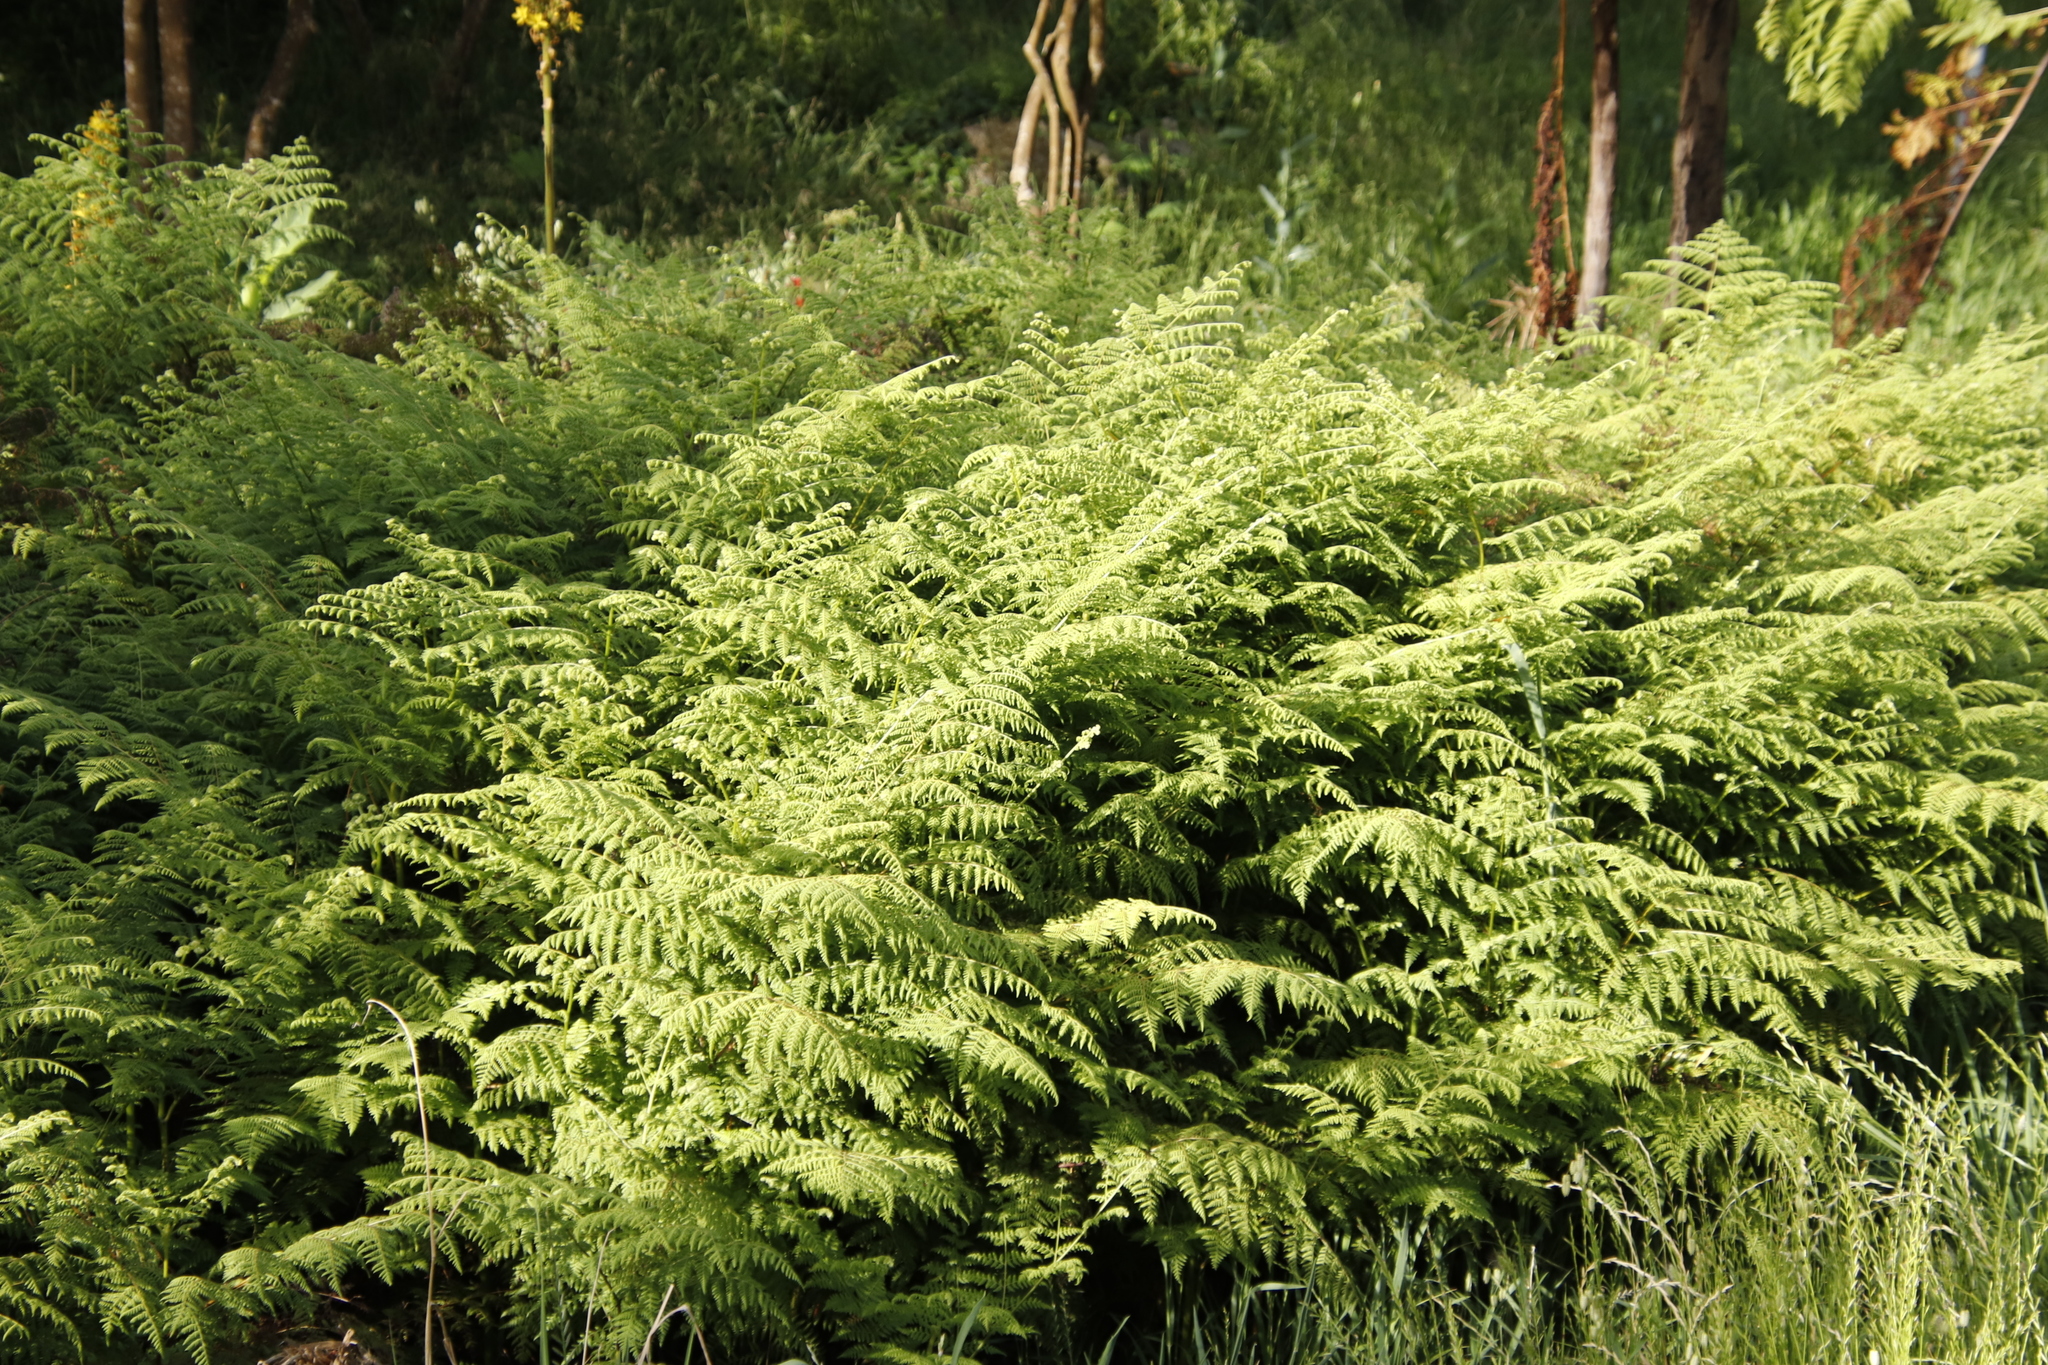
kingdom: Plantae
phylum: Tracheophyta
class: Polypodiopsida
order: Polypodiales
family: Dennstaedtiaceae
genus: Pteridium
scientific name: Pteridium aquilinum
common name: Bracken
